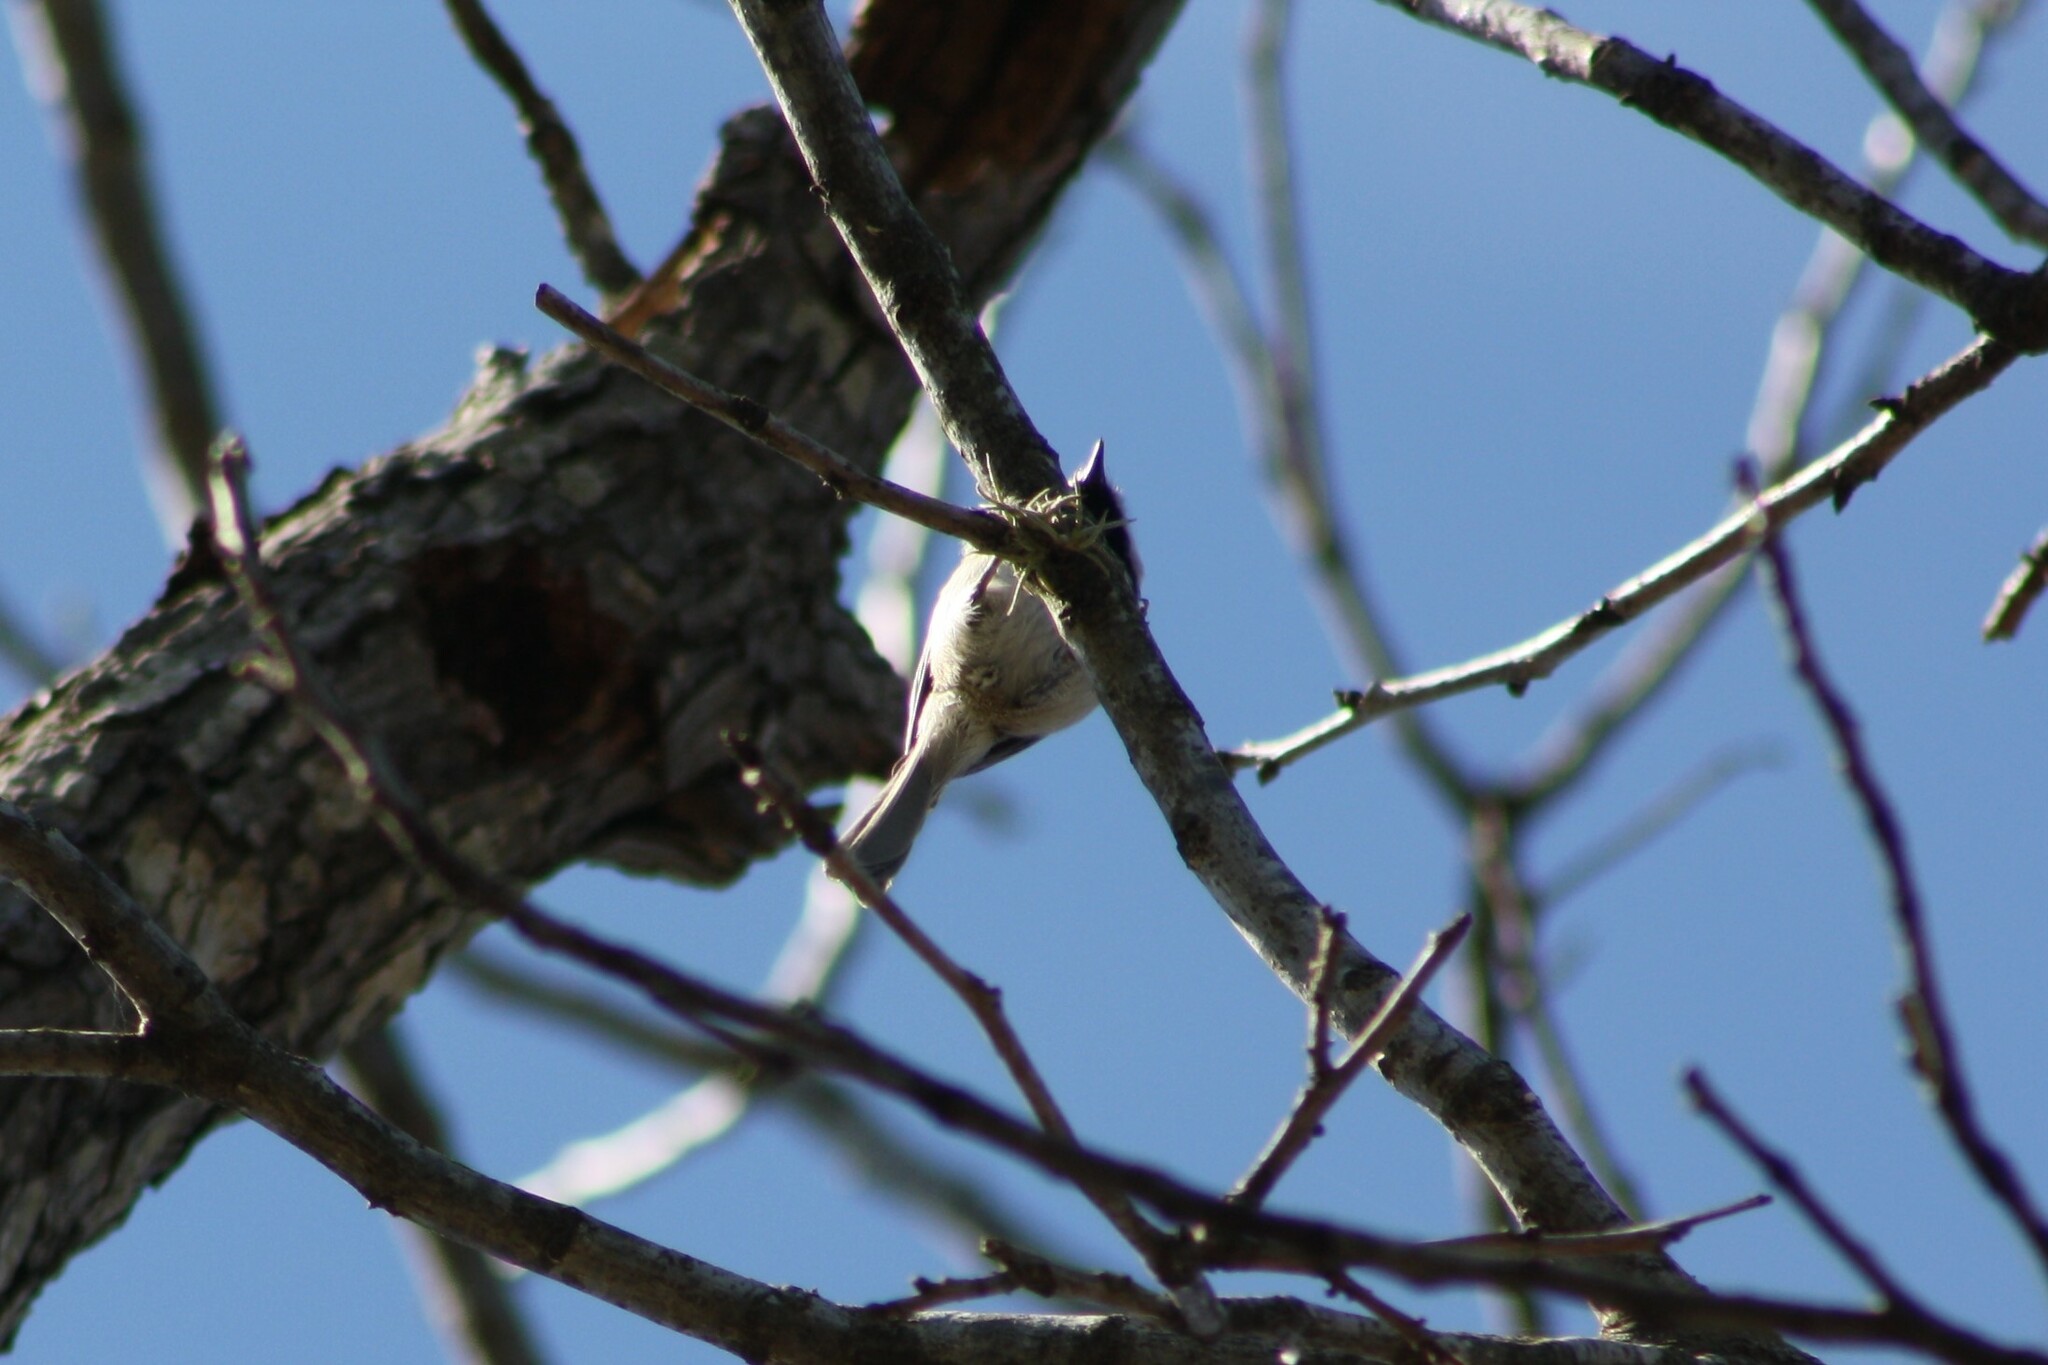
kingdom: Animalia
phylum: Chordata
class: Aves
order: Passeriformes
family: Paridae
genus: Poecile
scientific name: Poecile carolinensis
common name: Carolina chickadee
